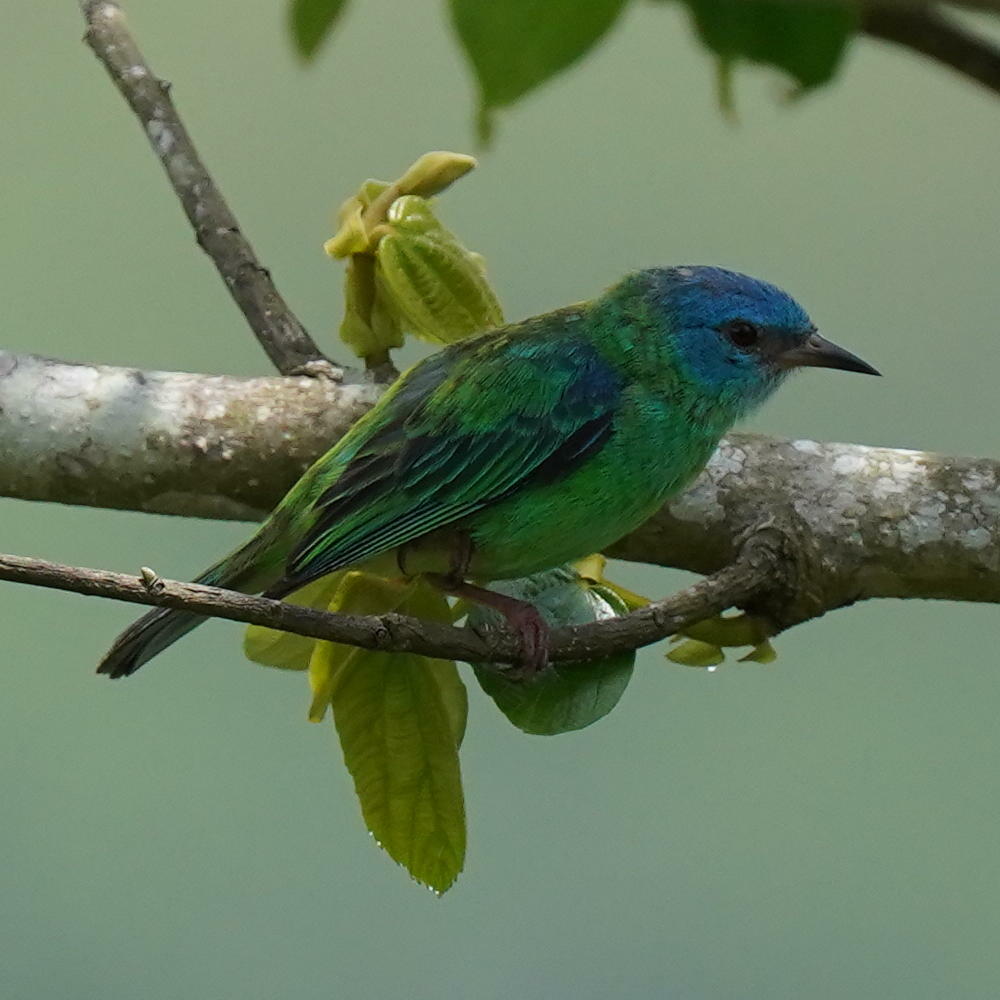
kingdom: Animalia
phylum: Chordata
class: Aves
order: Passeriformes
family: Thraupidae
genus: Dacnis
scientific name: Dacnis cayana
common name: Blue dacnis
